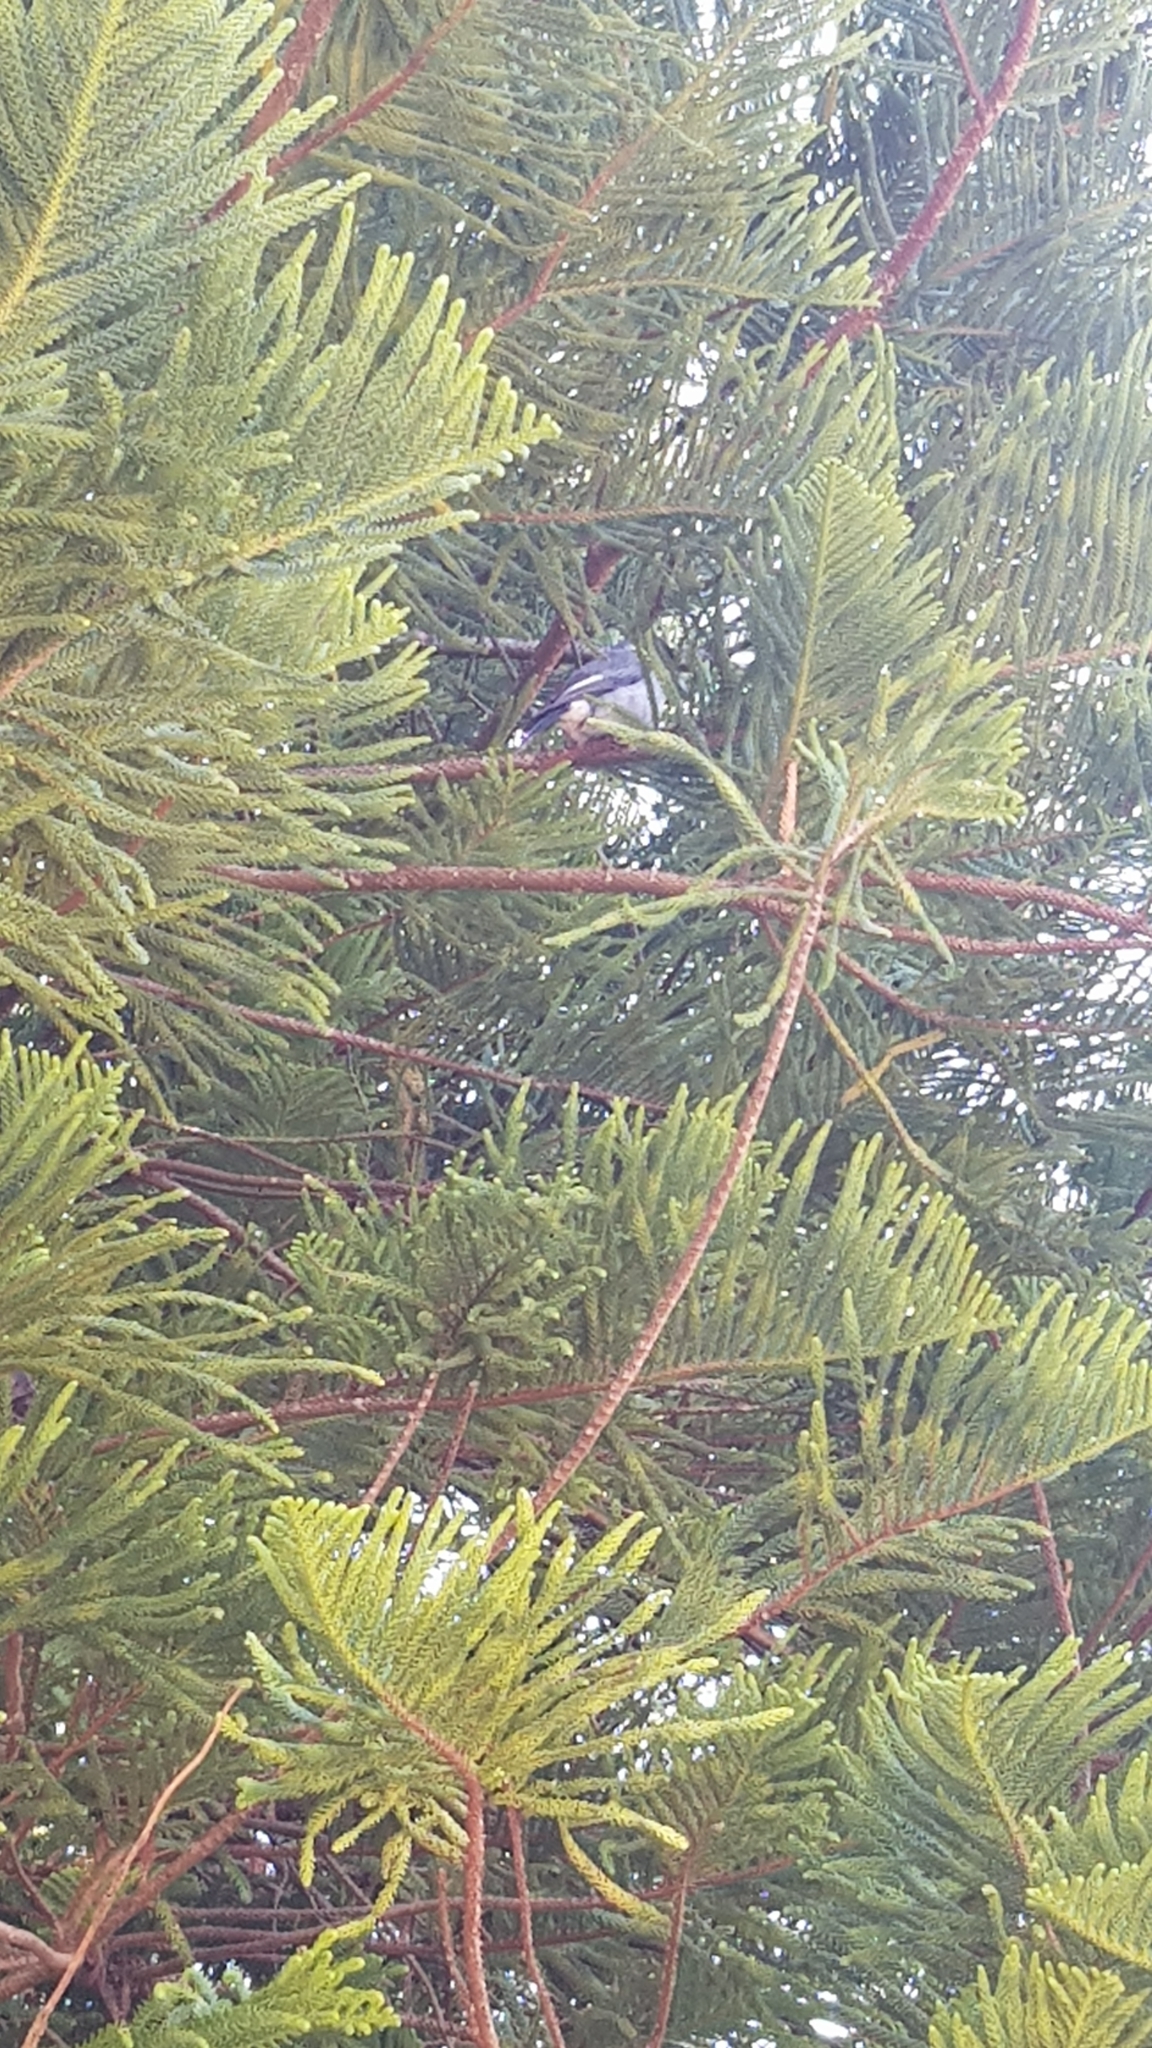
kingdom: Animalia
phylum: Chordata
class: Aves
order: Passeriformes
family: Cracticidae
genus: Cracticus
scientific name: Cracticus torquatus
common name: Grey butcherbird
